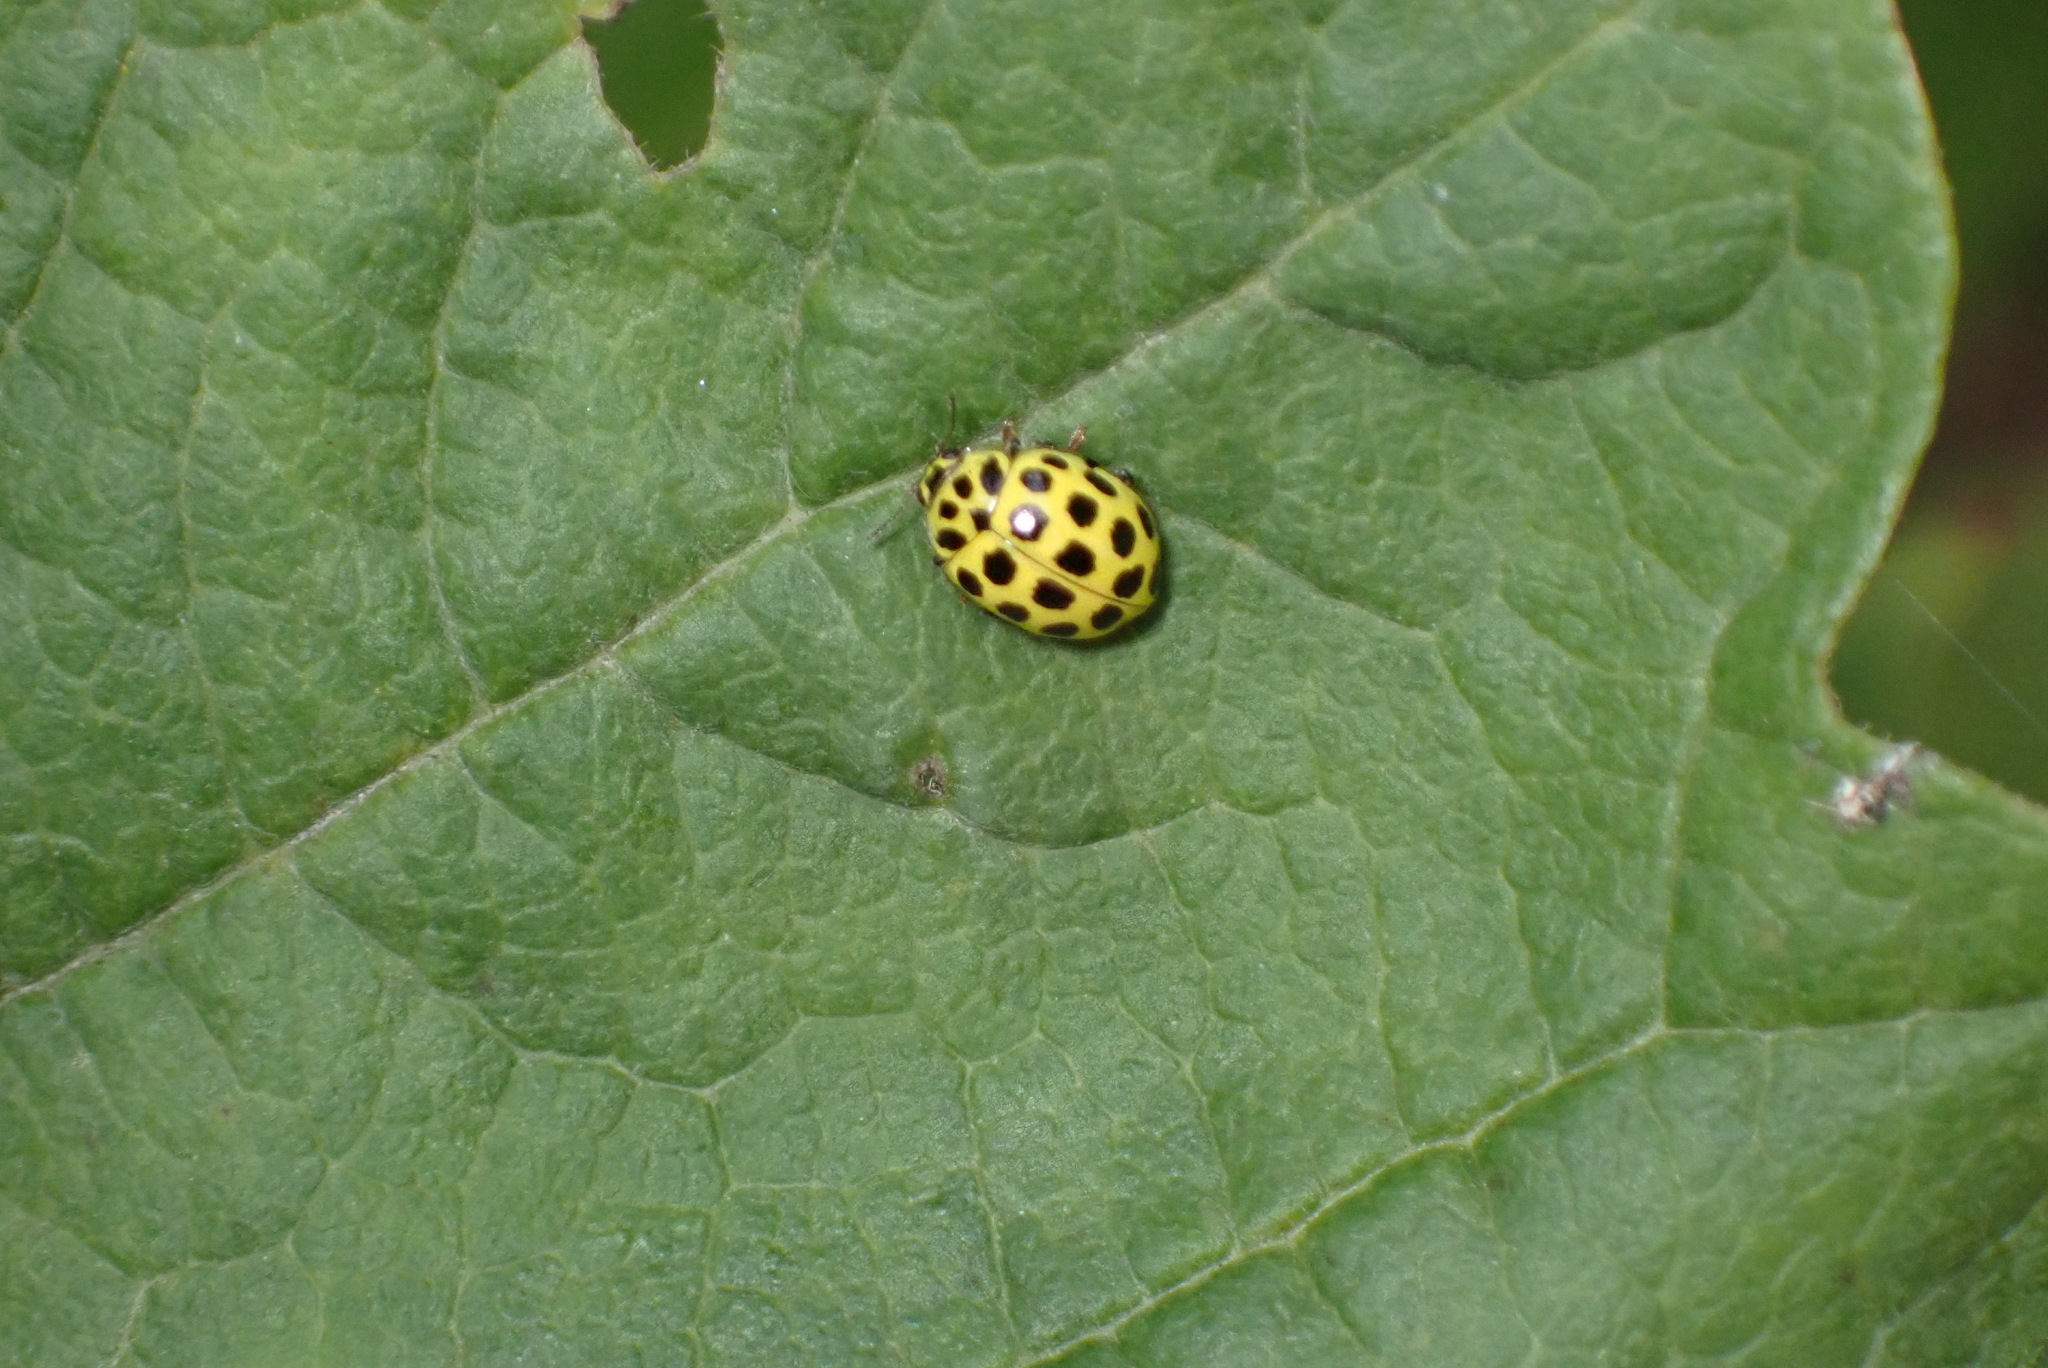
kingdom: Animalia
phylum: Arthropoda
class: Insecta
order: Coleoptera
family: Coccinellidae
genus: Psyllobora
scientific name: Psyllobora vigintiduopunctata
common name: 22-spot ladybird
